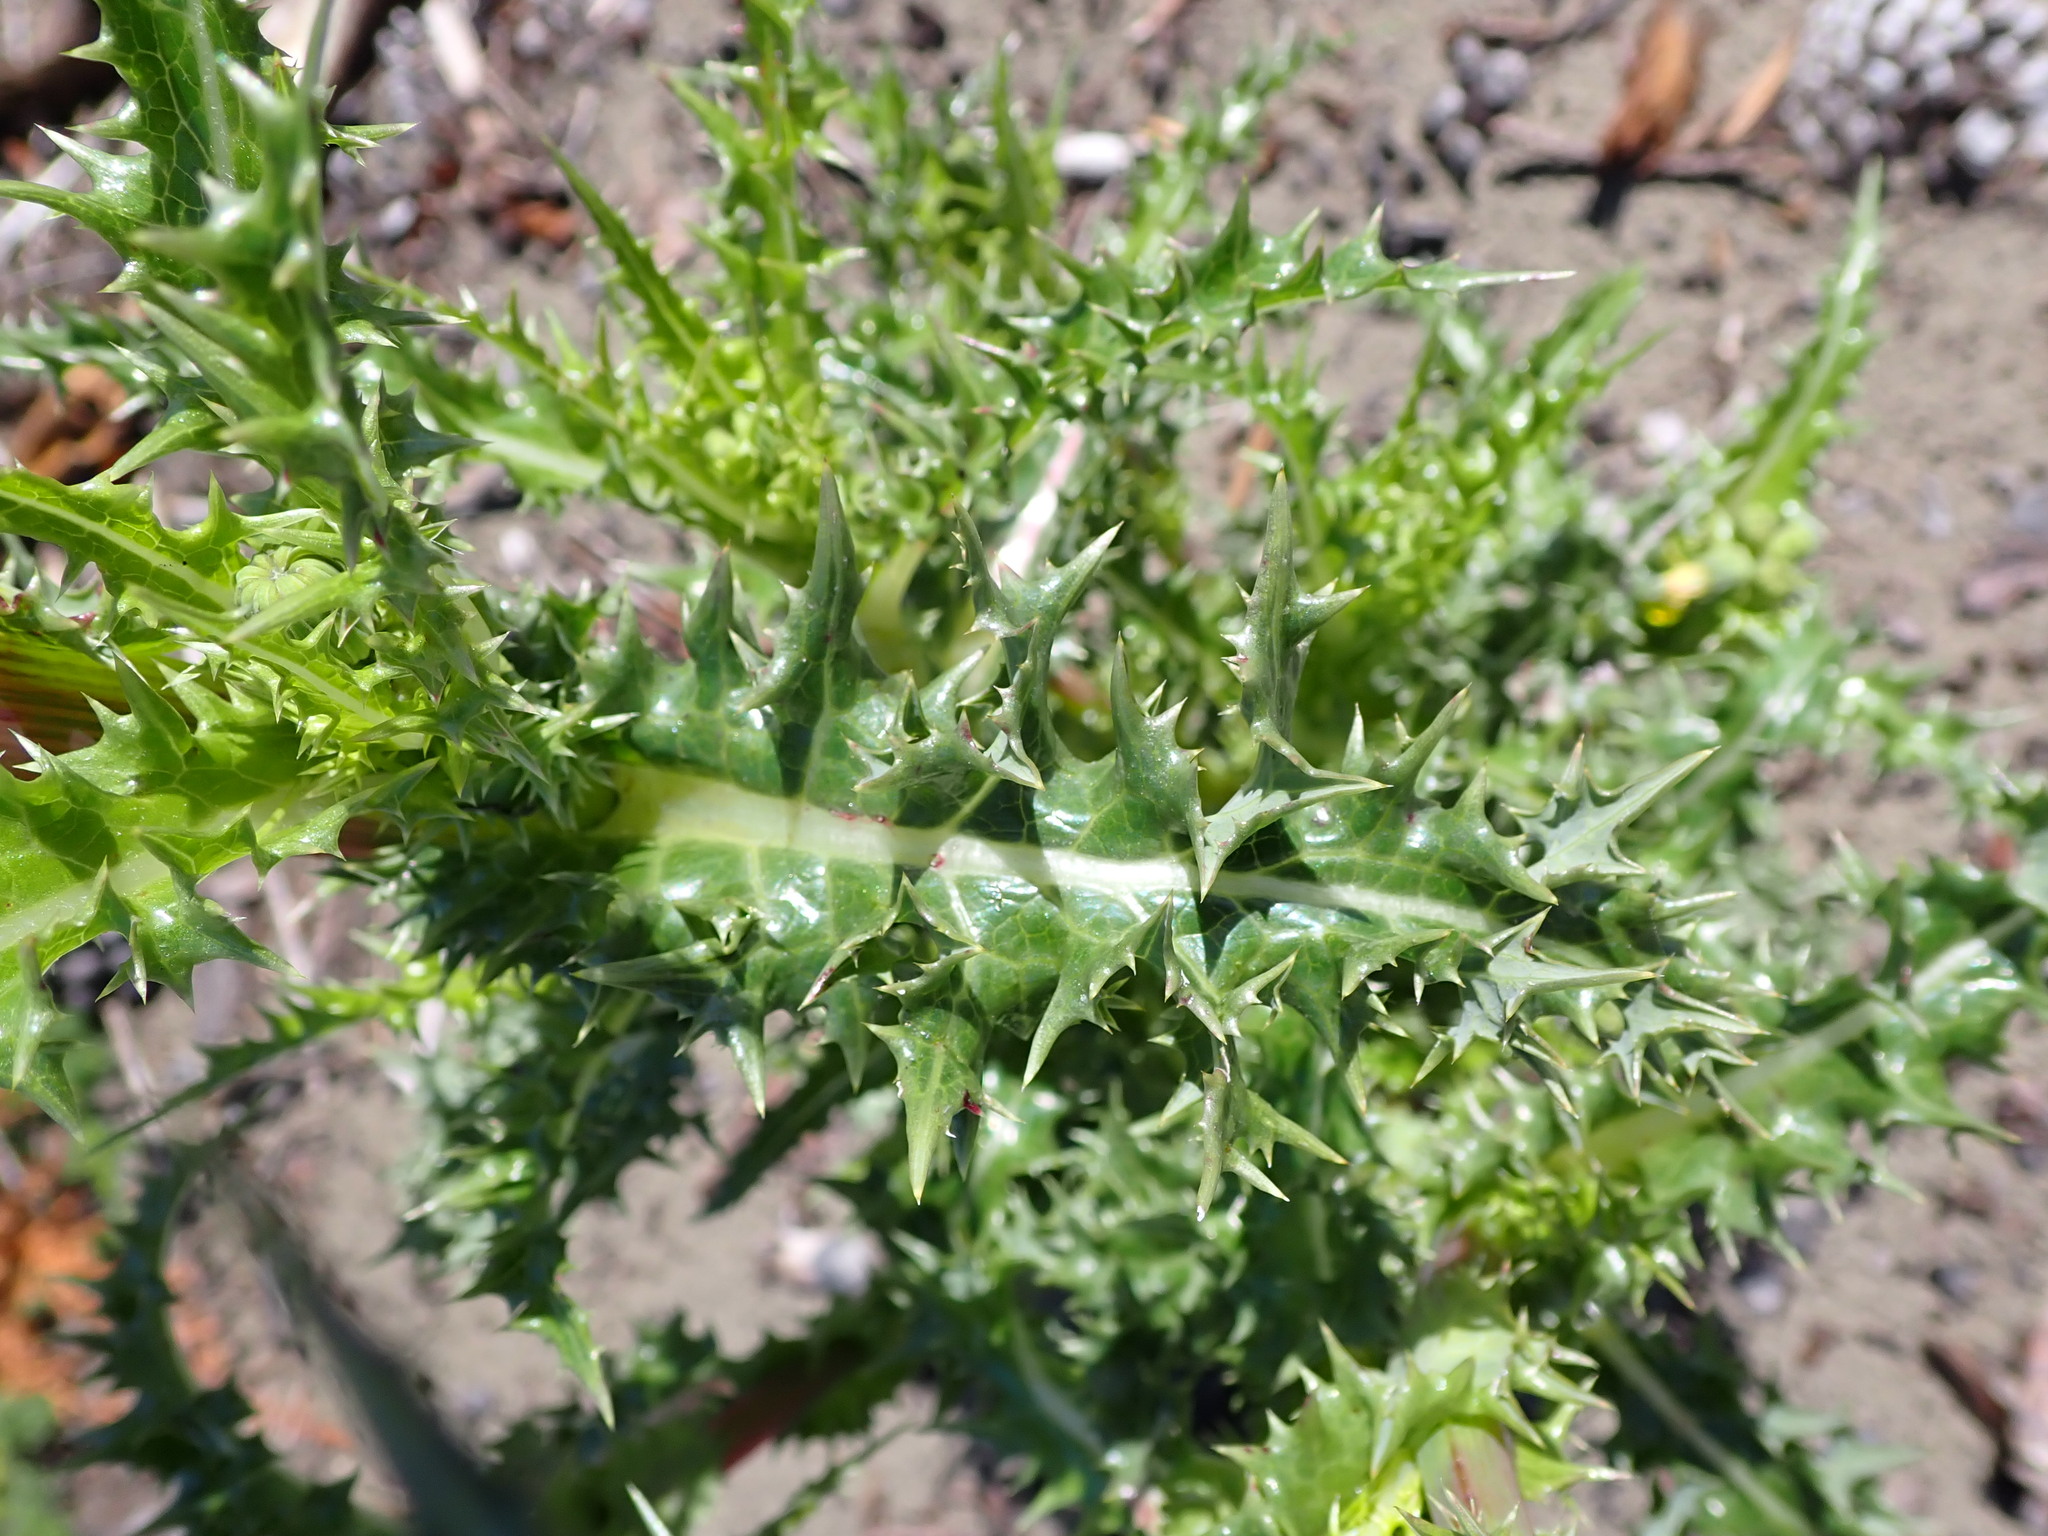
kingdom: Plantae
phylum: Tracheophyta
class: Magnoliopsida
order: Asterales
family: Asteraceae
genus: Sonchus
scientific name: Sonchus asper
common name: Prickly sow-thistle
